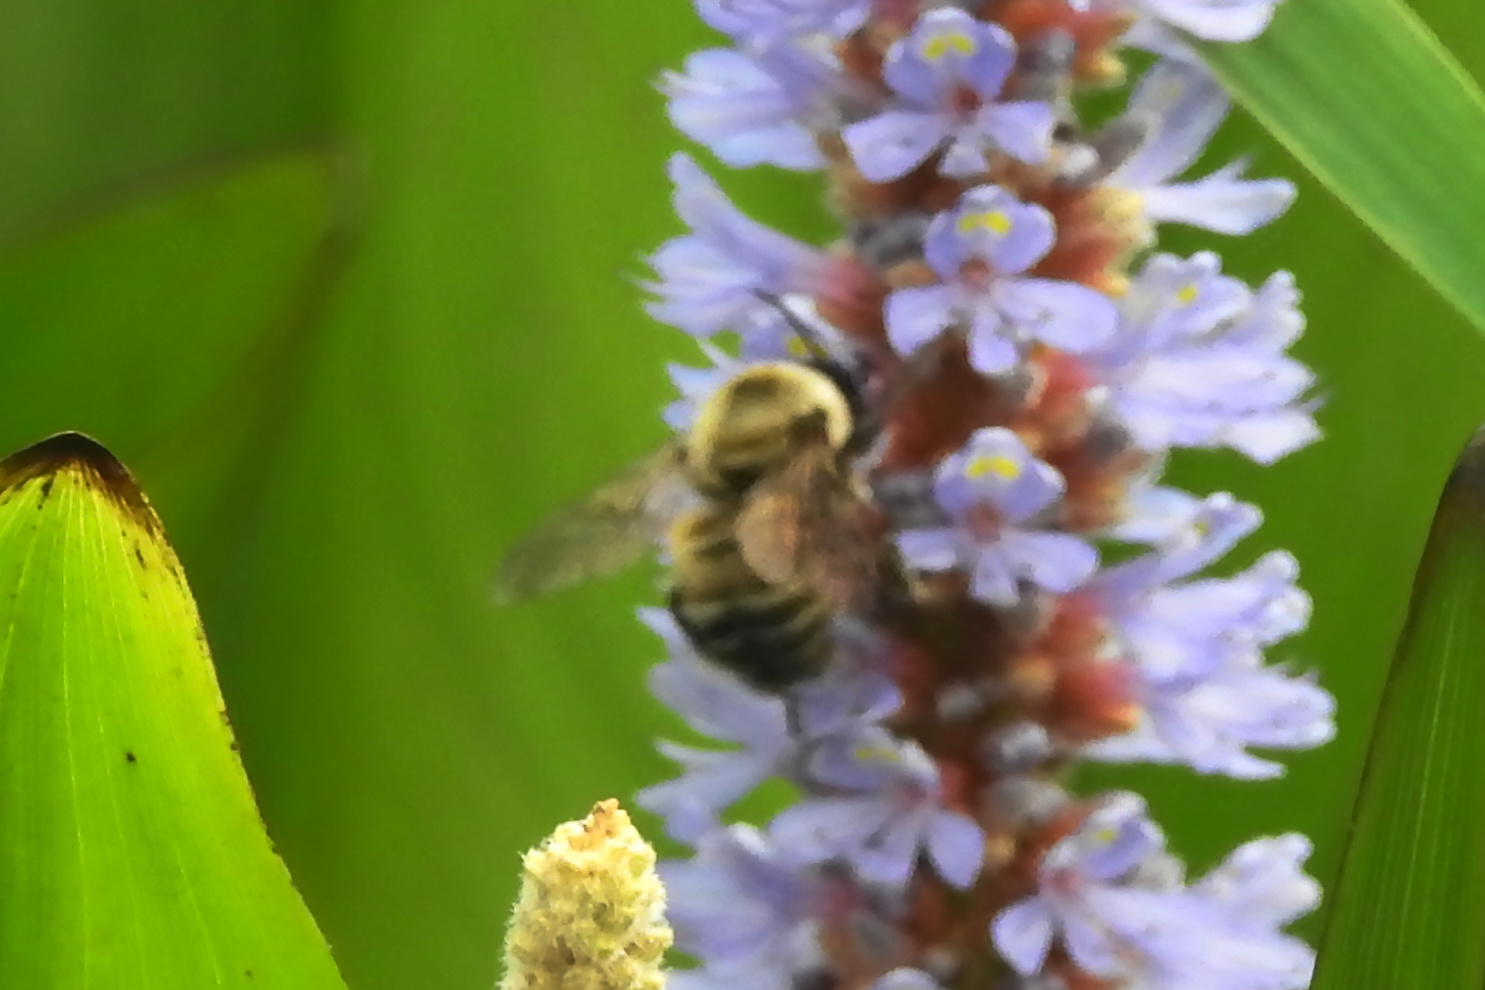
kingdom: Animalia
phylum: Arthropoda
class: Insecta
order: Hymenoptera
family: Apidae
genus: Bombus
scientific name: Bombus griseocollis
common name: Brown-belted bumble bee
